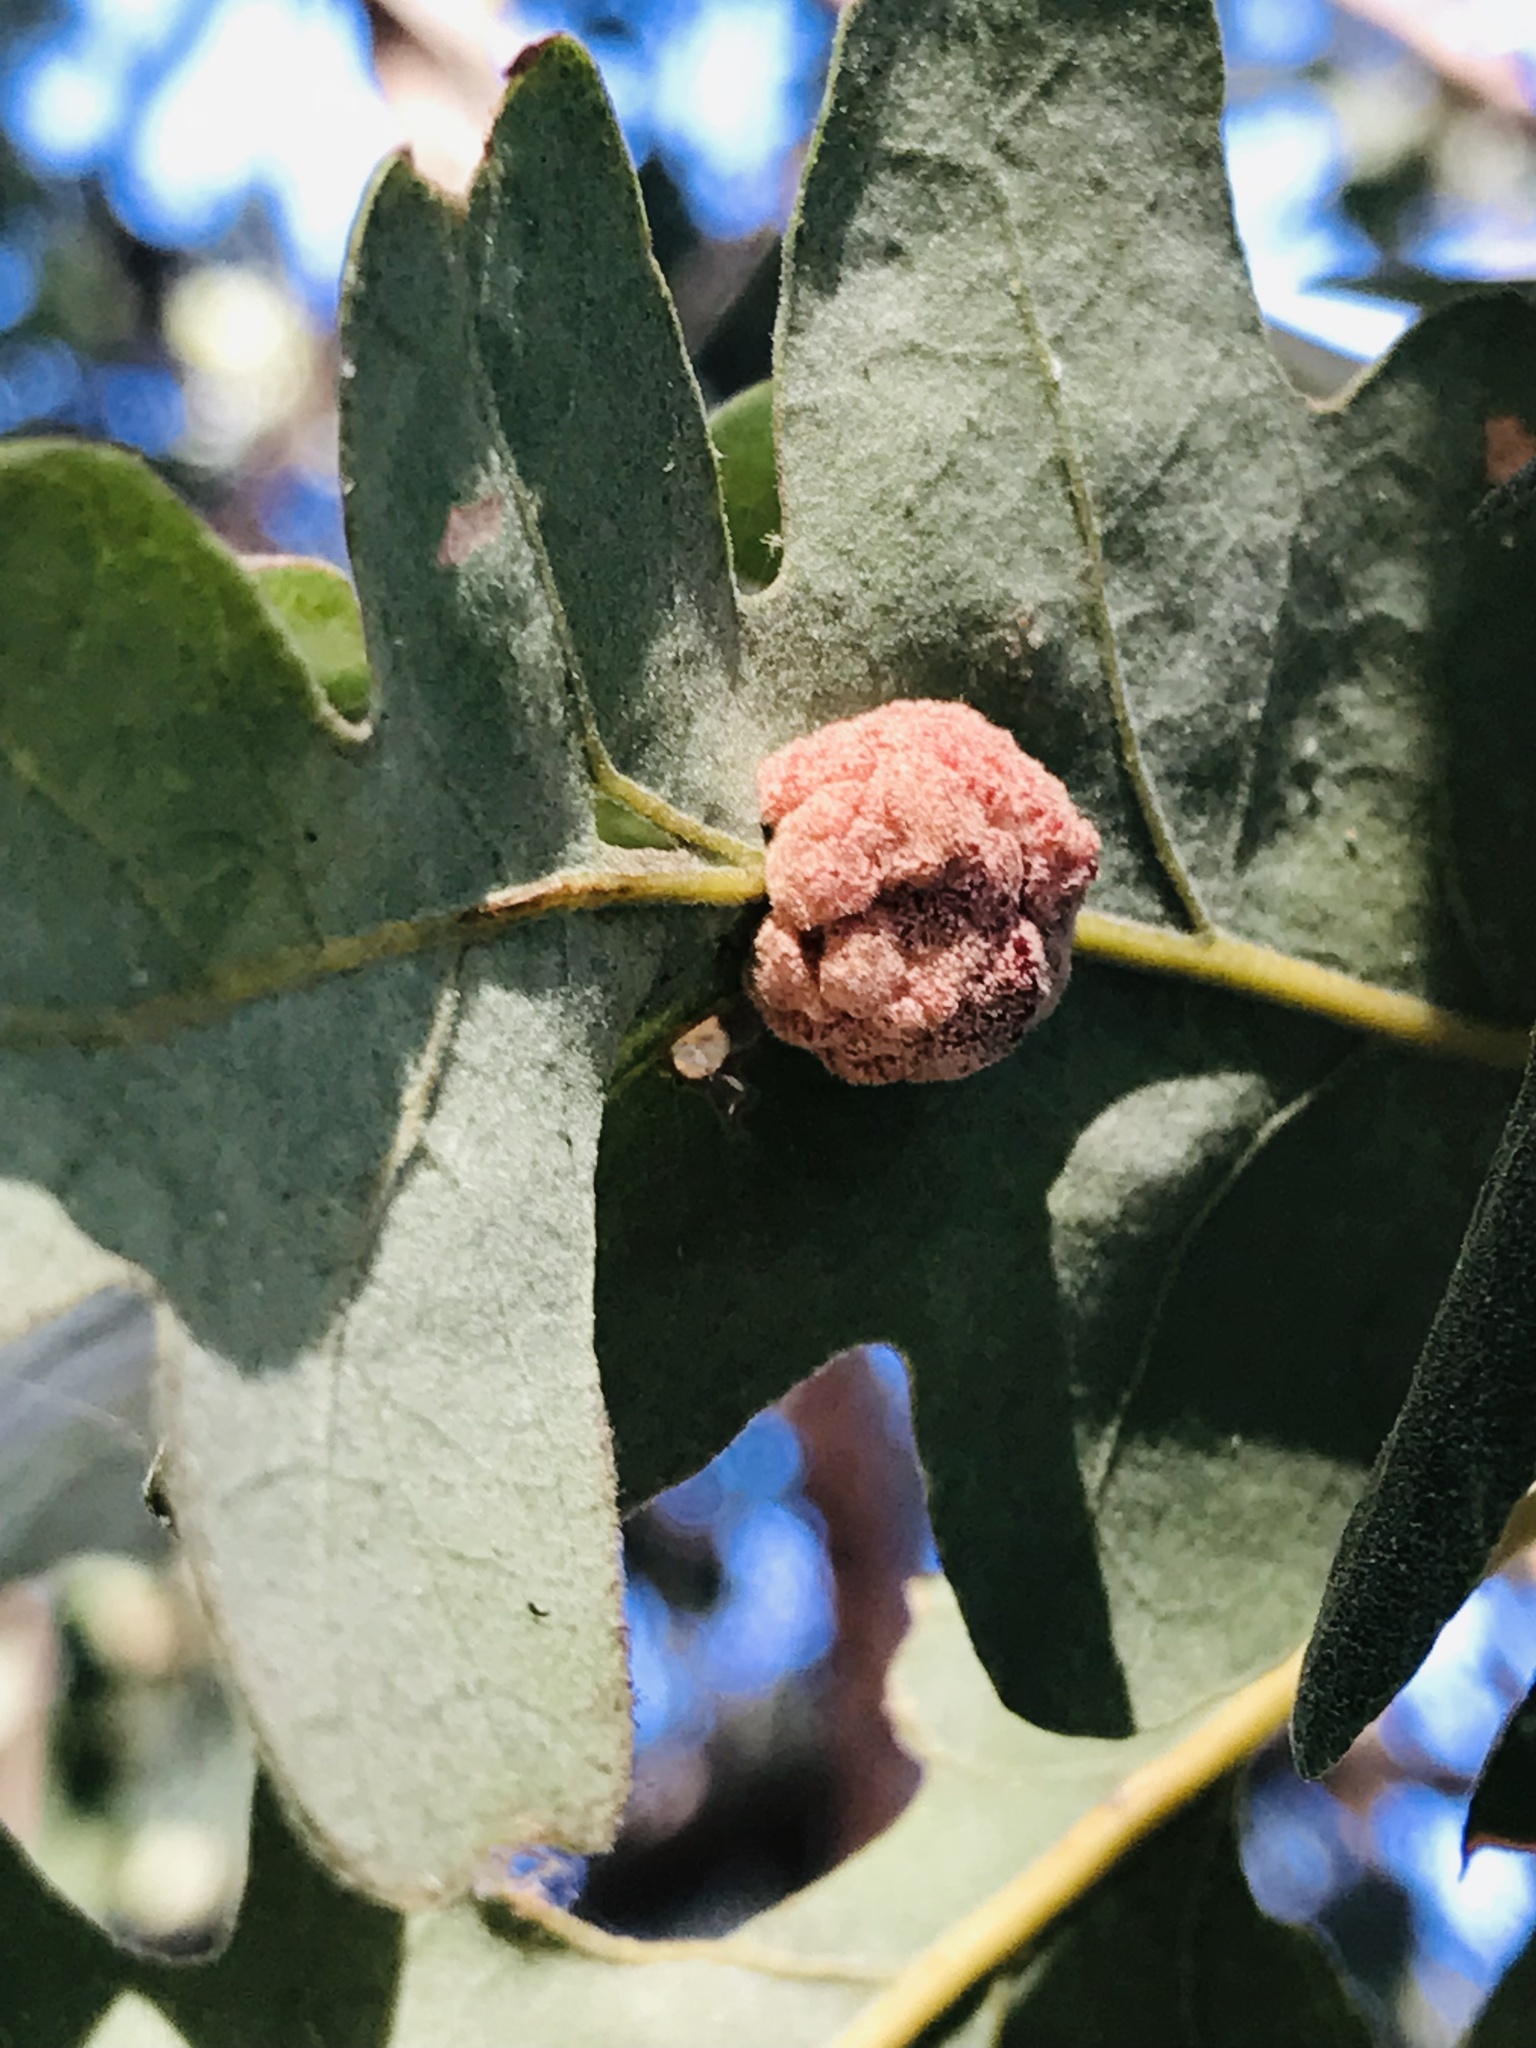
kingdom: Animalia
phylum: Arthropoda
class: Insecta
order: Hymenoptera
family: Cynipidae
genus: Andricus
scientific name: Andricus
